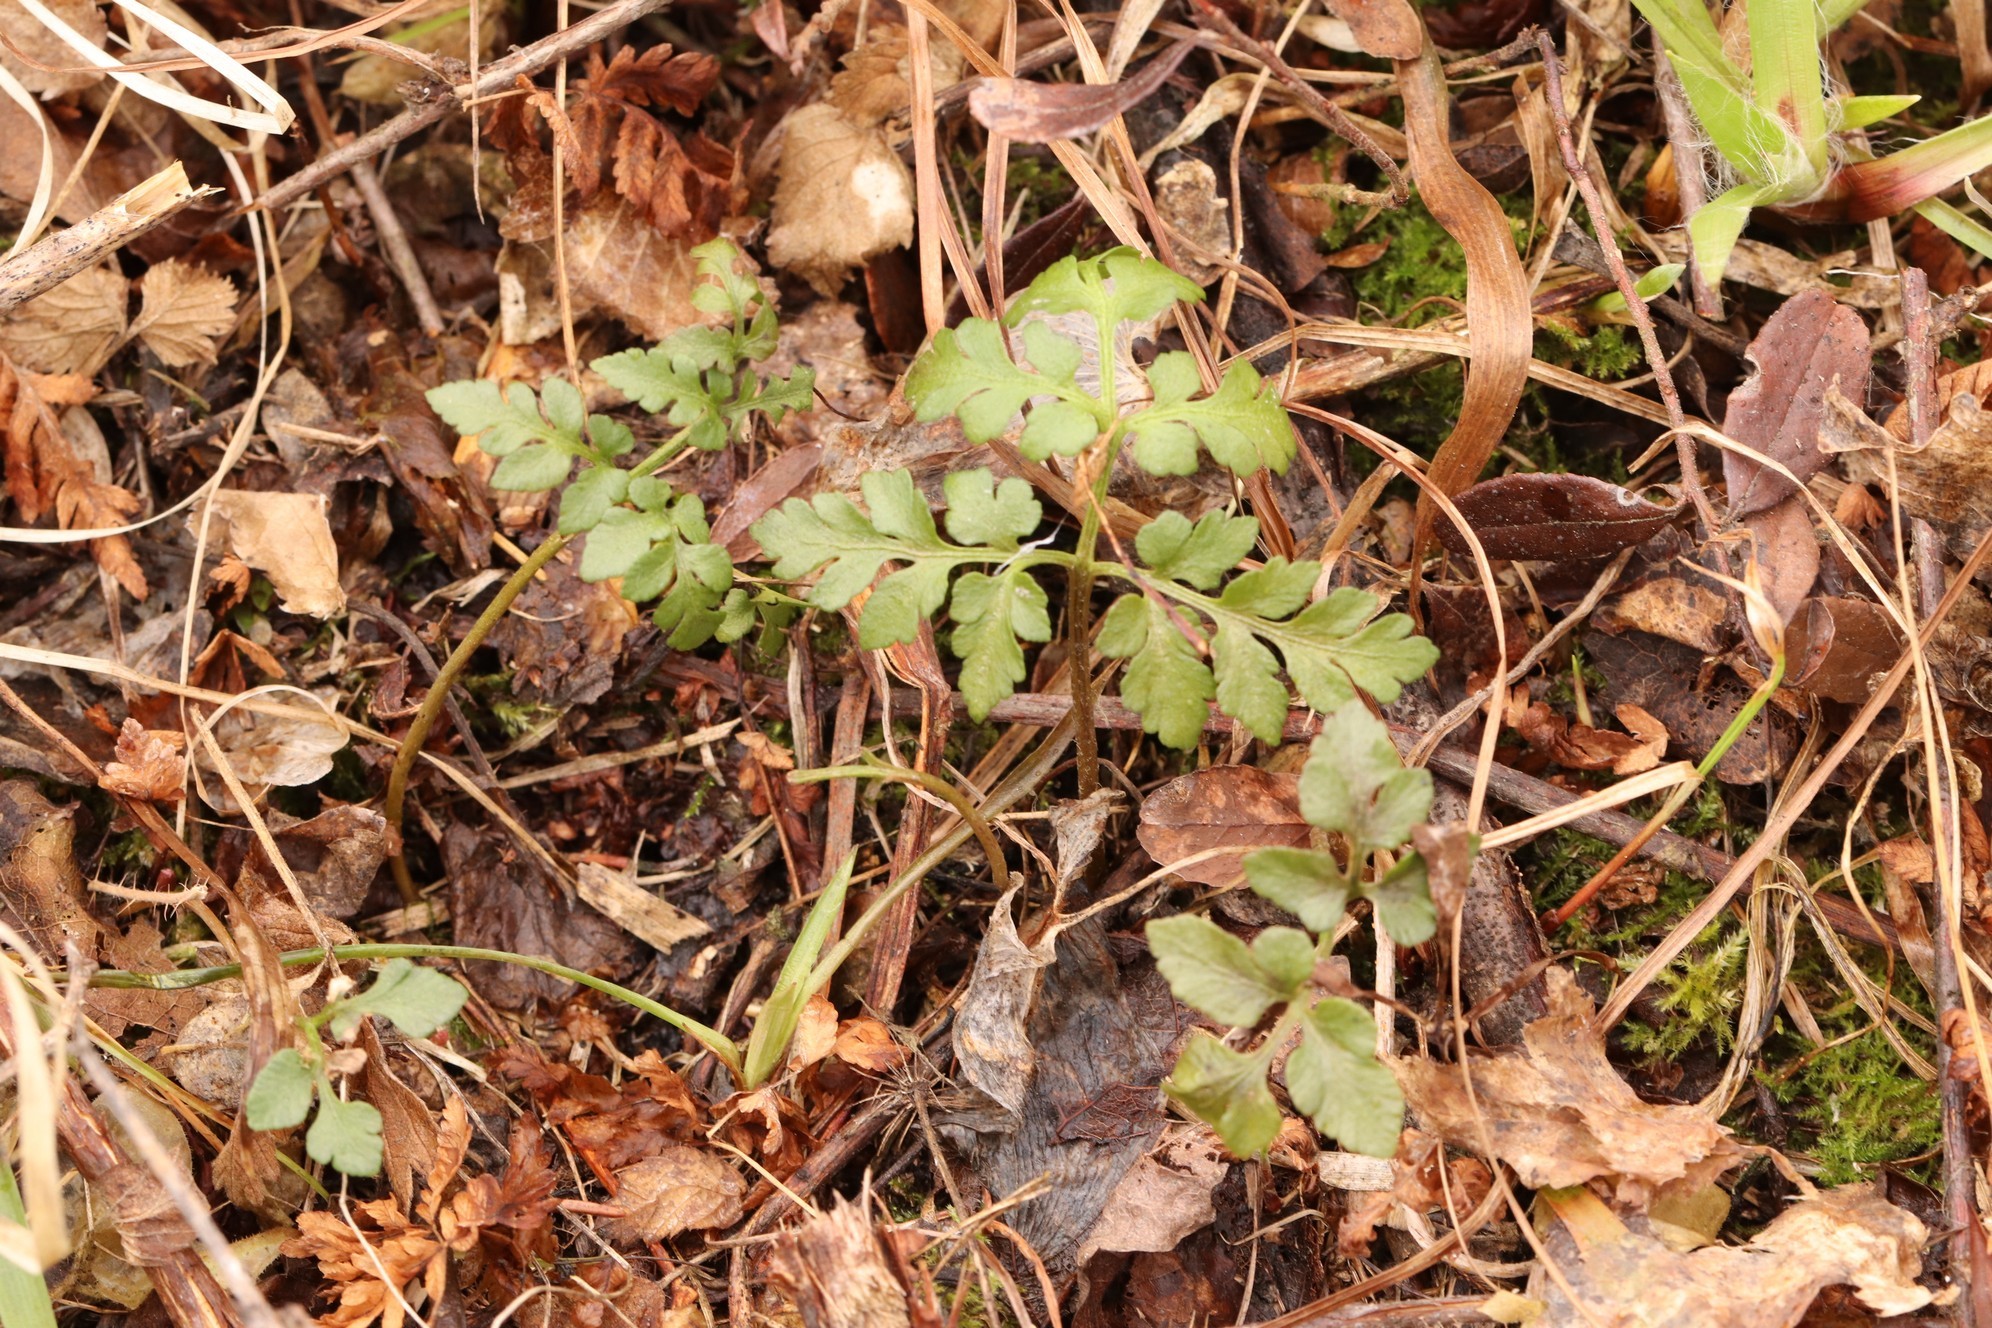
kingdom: Plantae
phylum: Tracheophyta
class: Polypodiopsida
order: Ophioglossales
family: Ophioglossaceae
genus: Sceptridium
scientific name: Sceptridium multifidum
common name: Leathery grape fern
